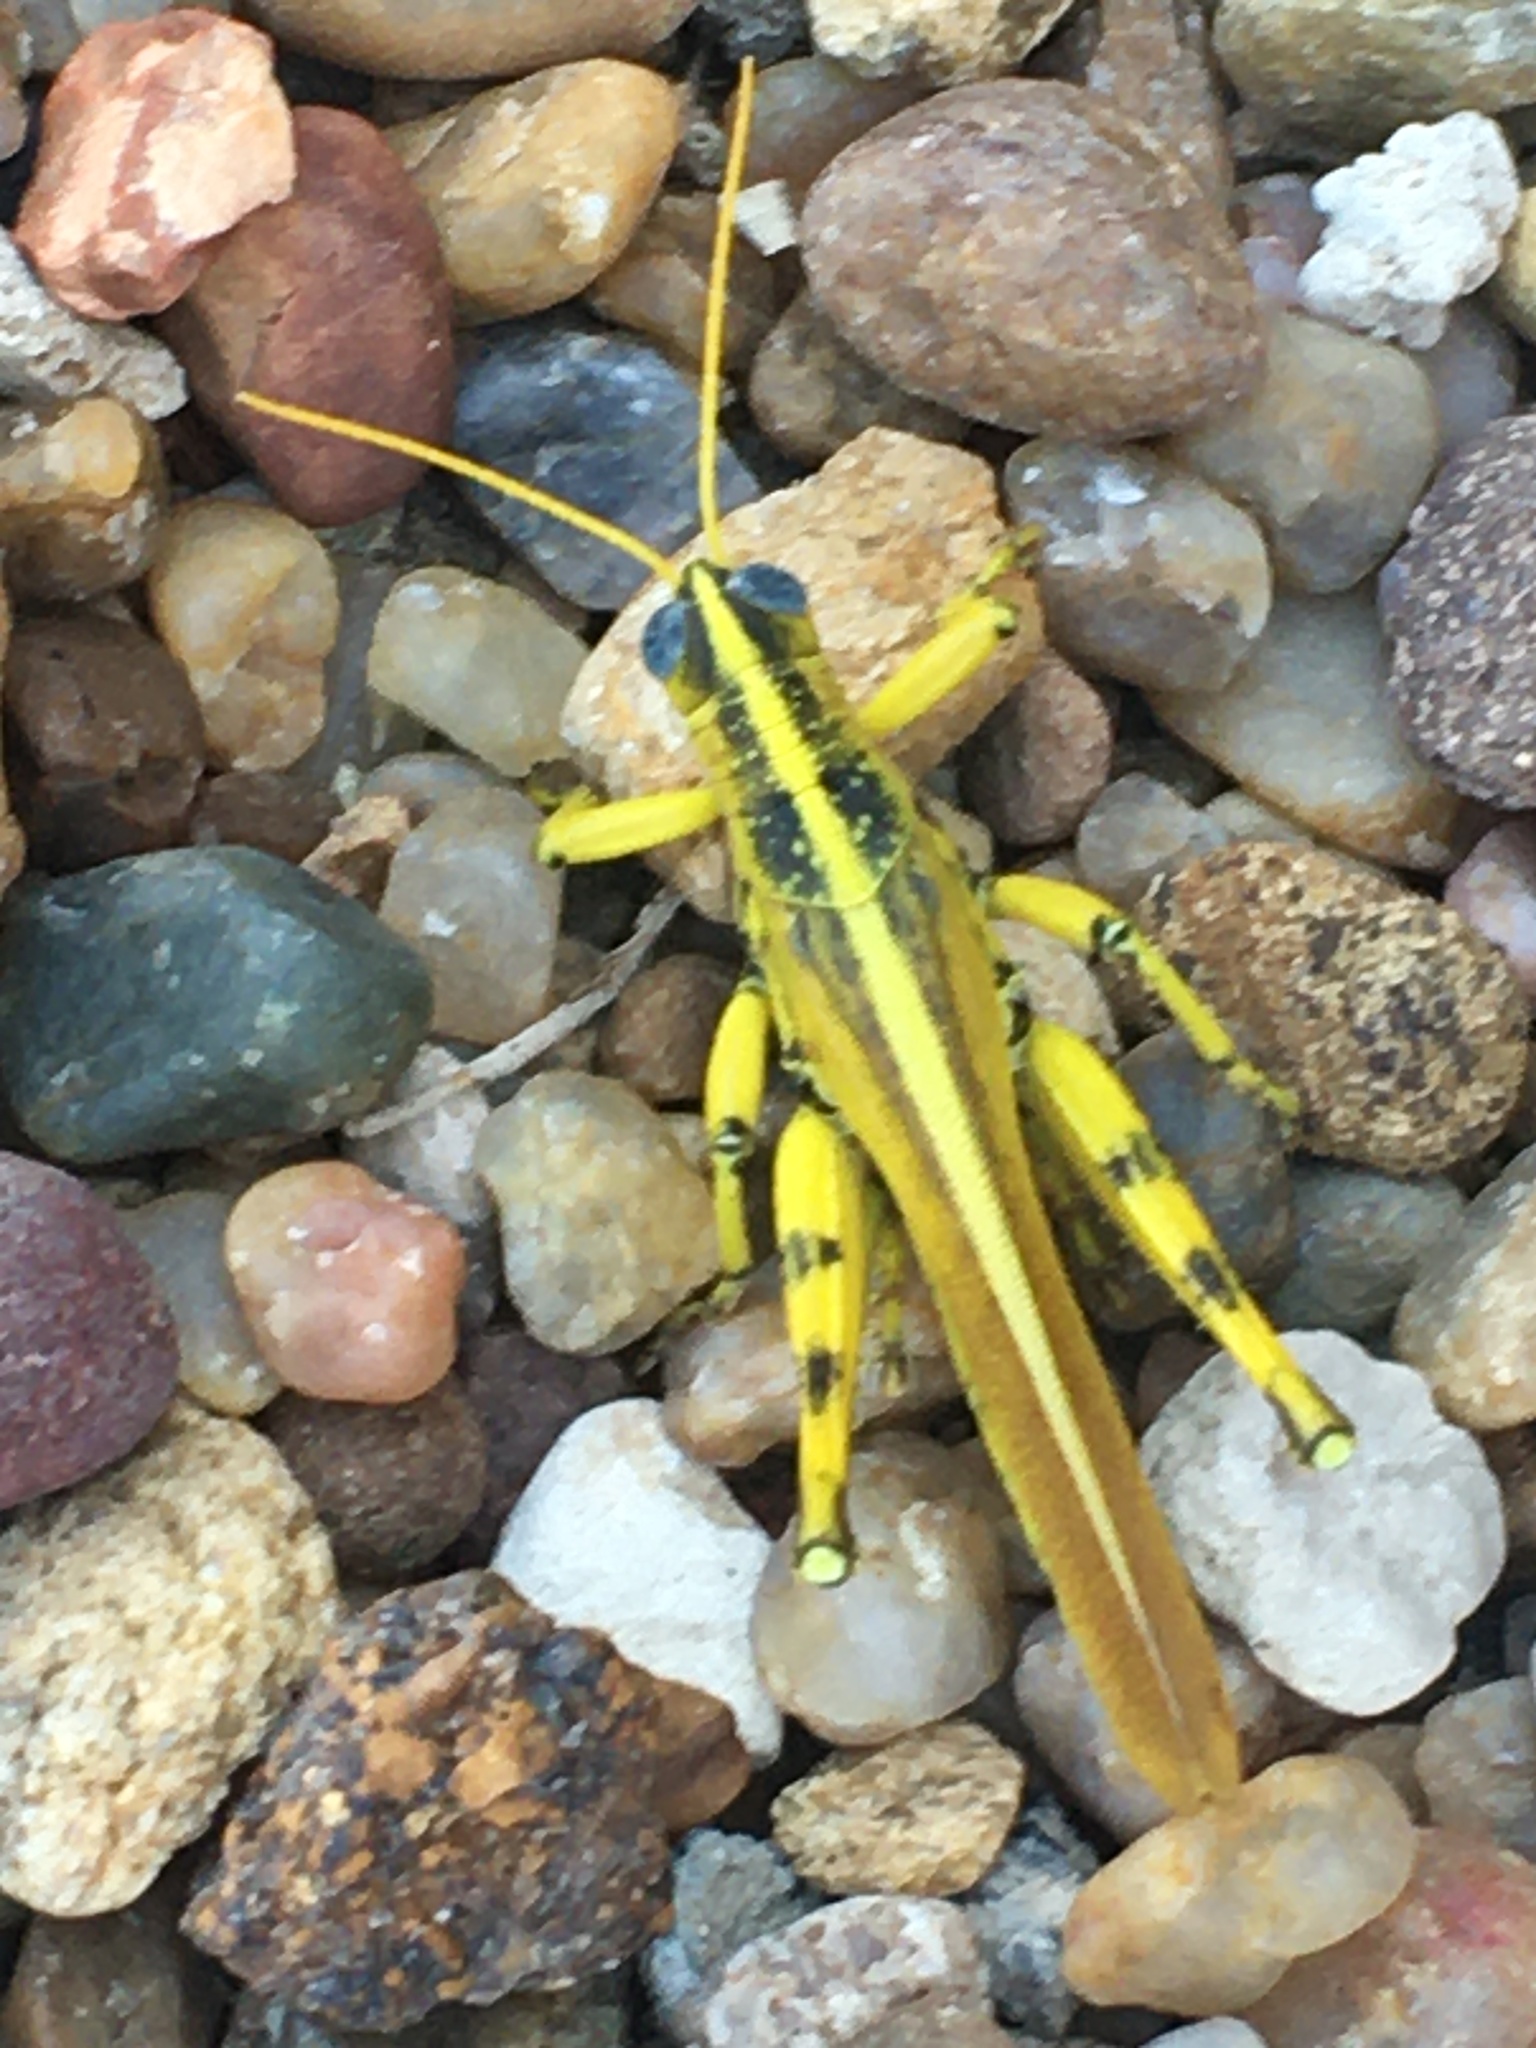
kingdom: Animalia
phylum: Arthropoda
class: Insecta
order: Orthoptera
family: Acrididae
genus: Schistocerca
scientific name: Schistocerca lineata
